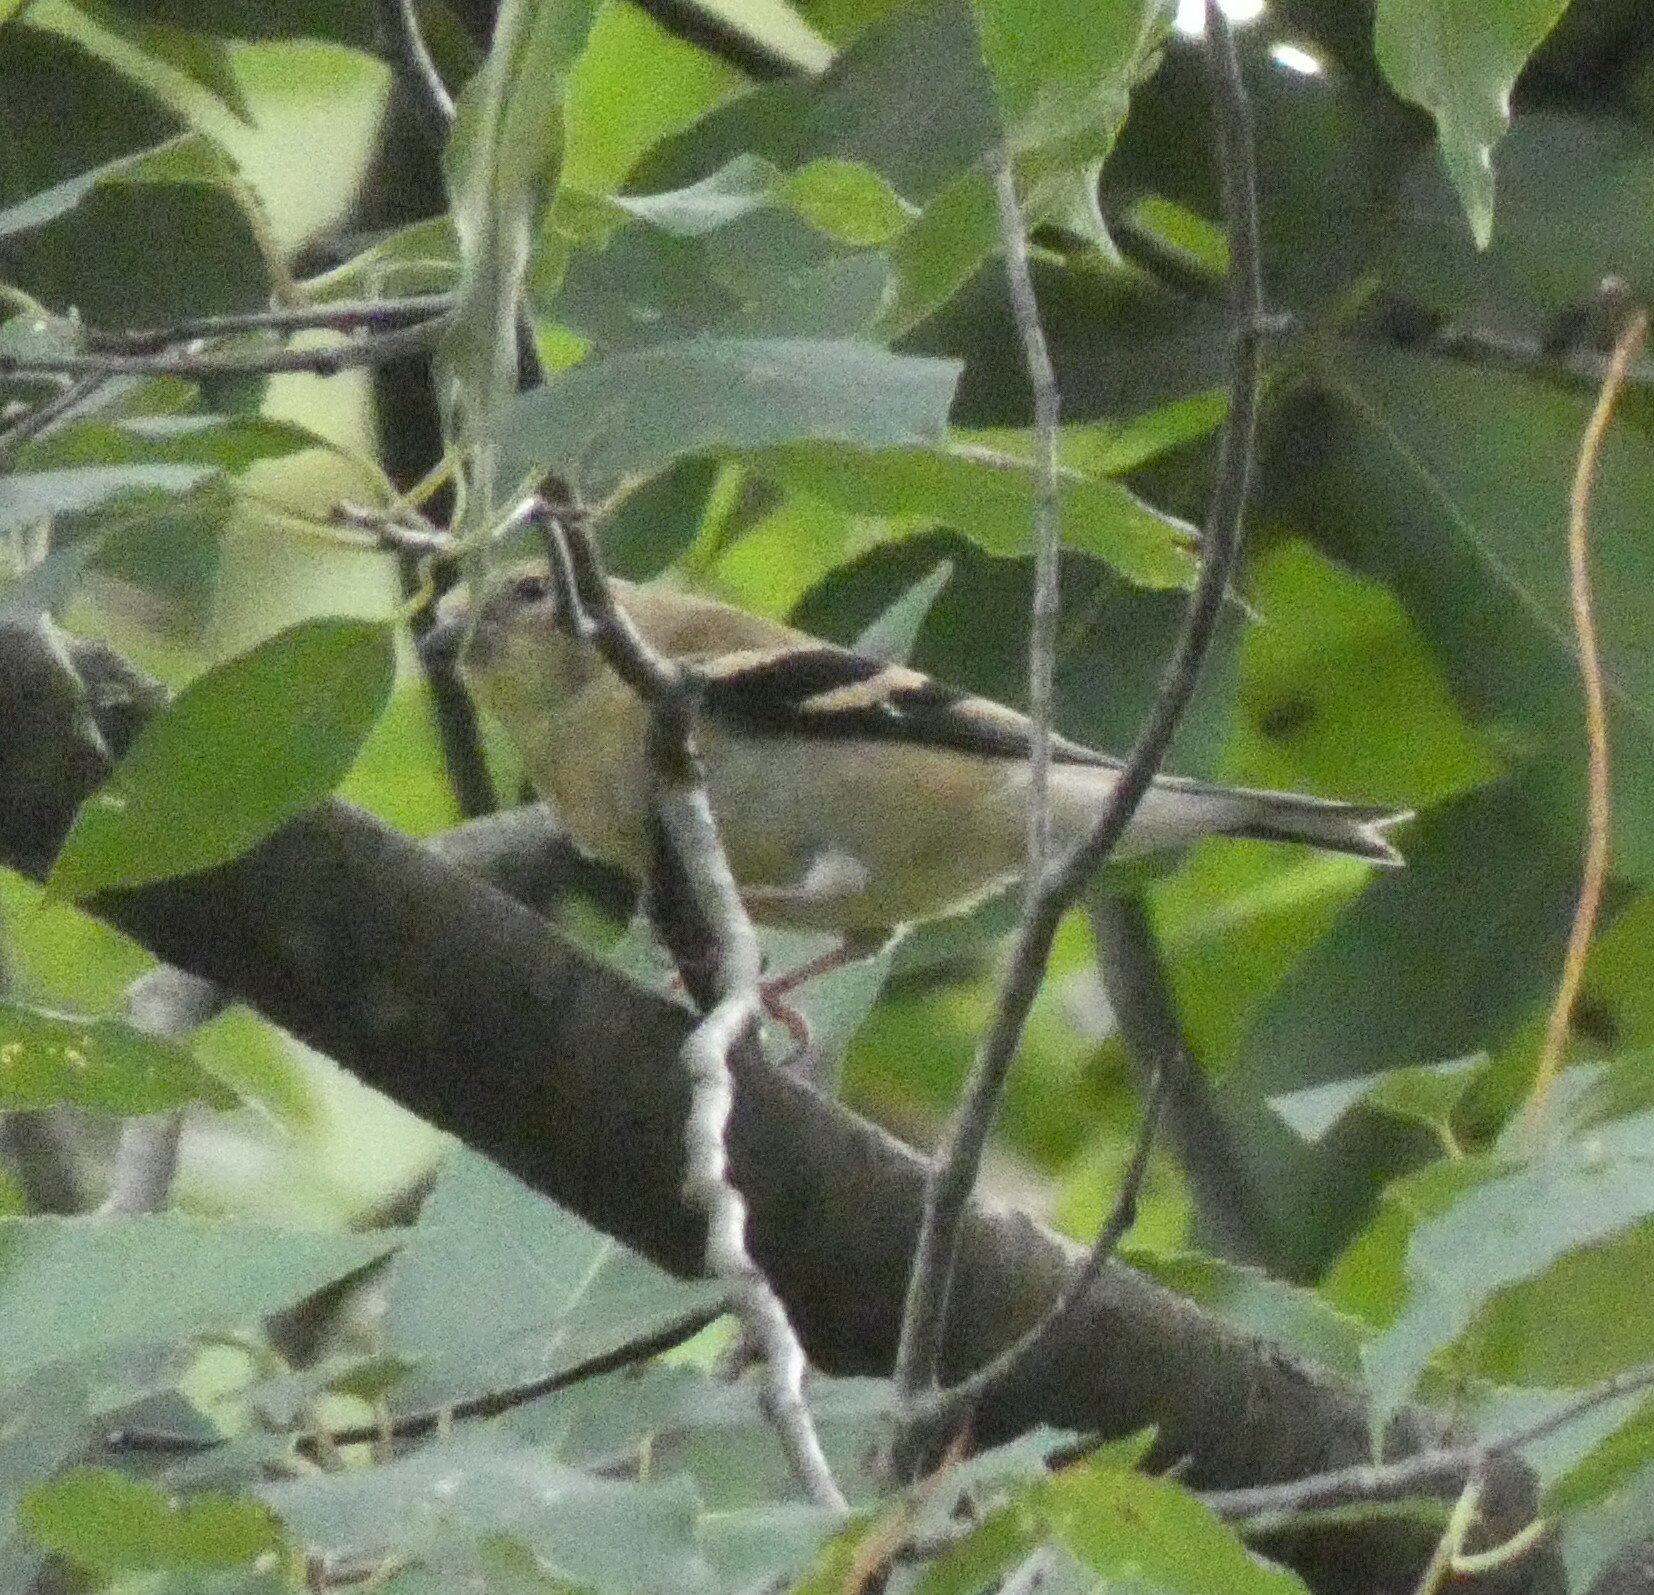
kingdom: Animalia
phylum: Chordata
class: Aves
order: Passeriformes
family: Fringillidae
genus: Spinus
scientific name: Spinus tristis
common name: American goldfinch
